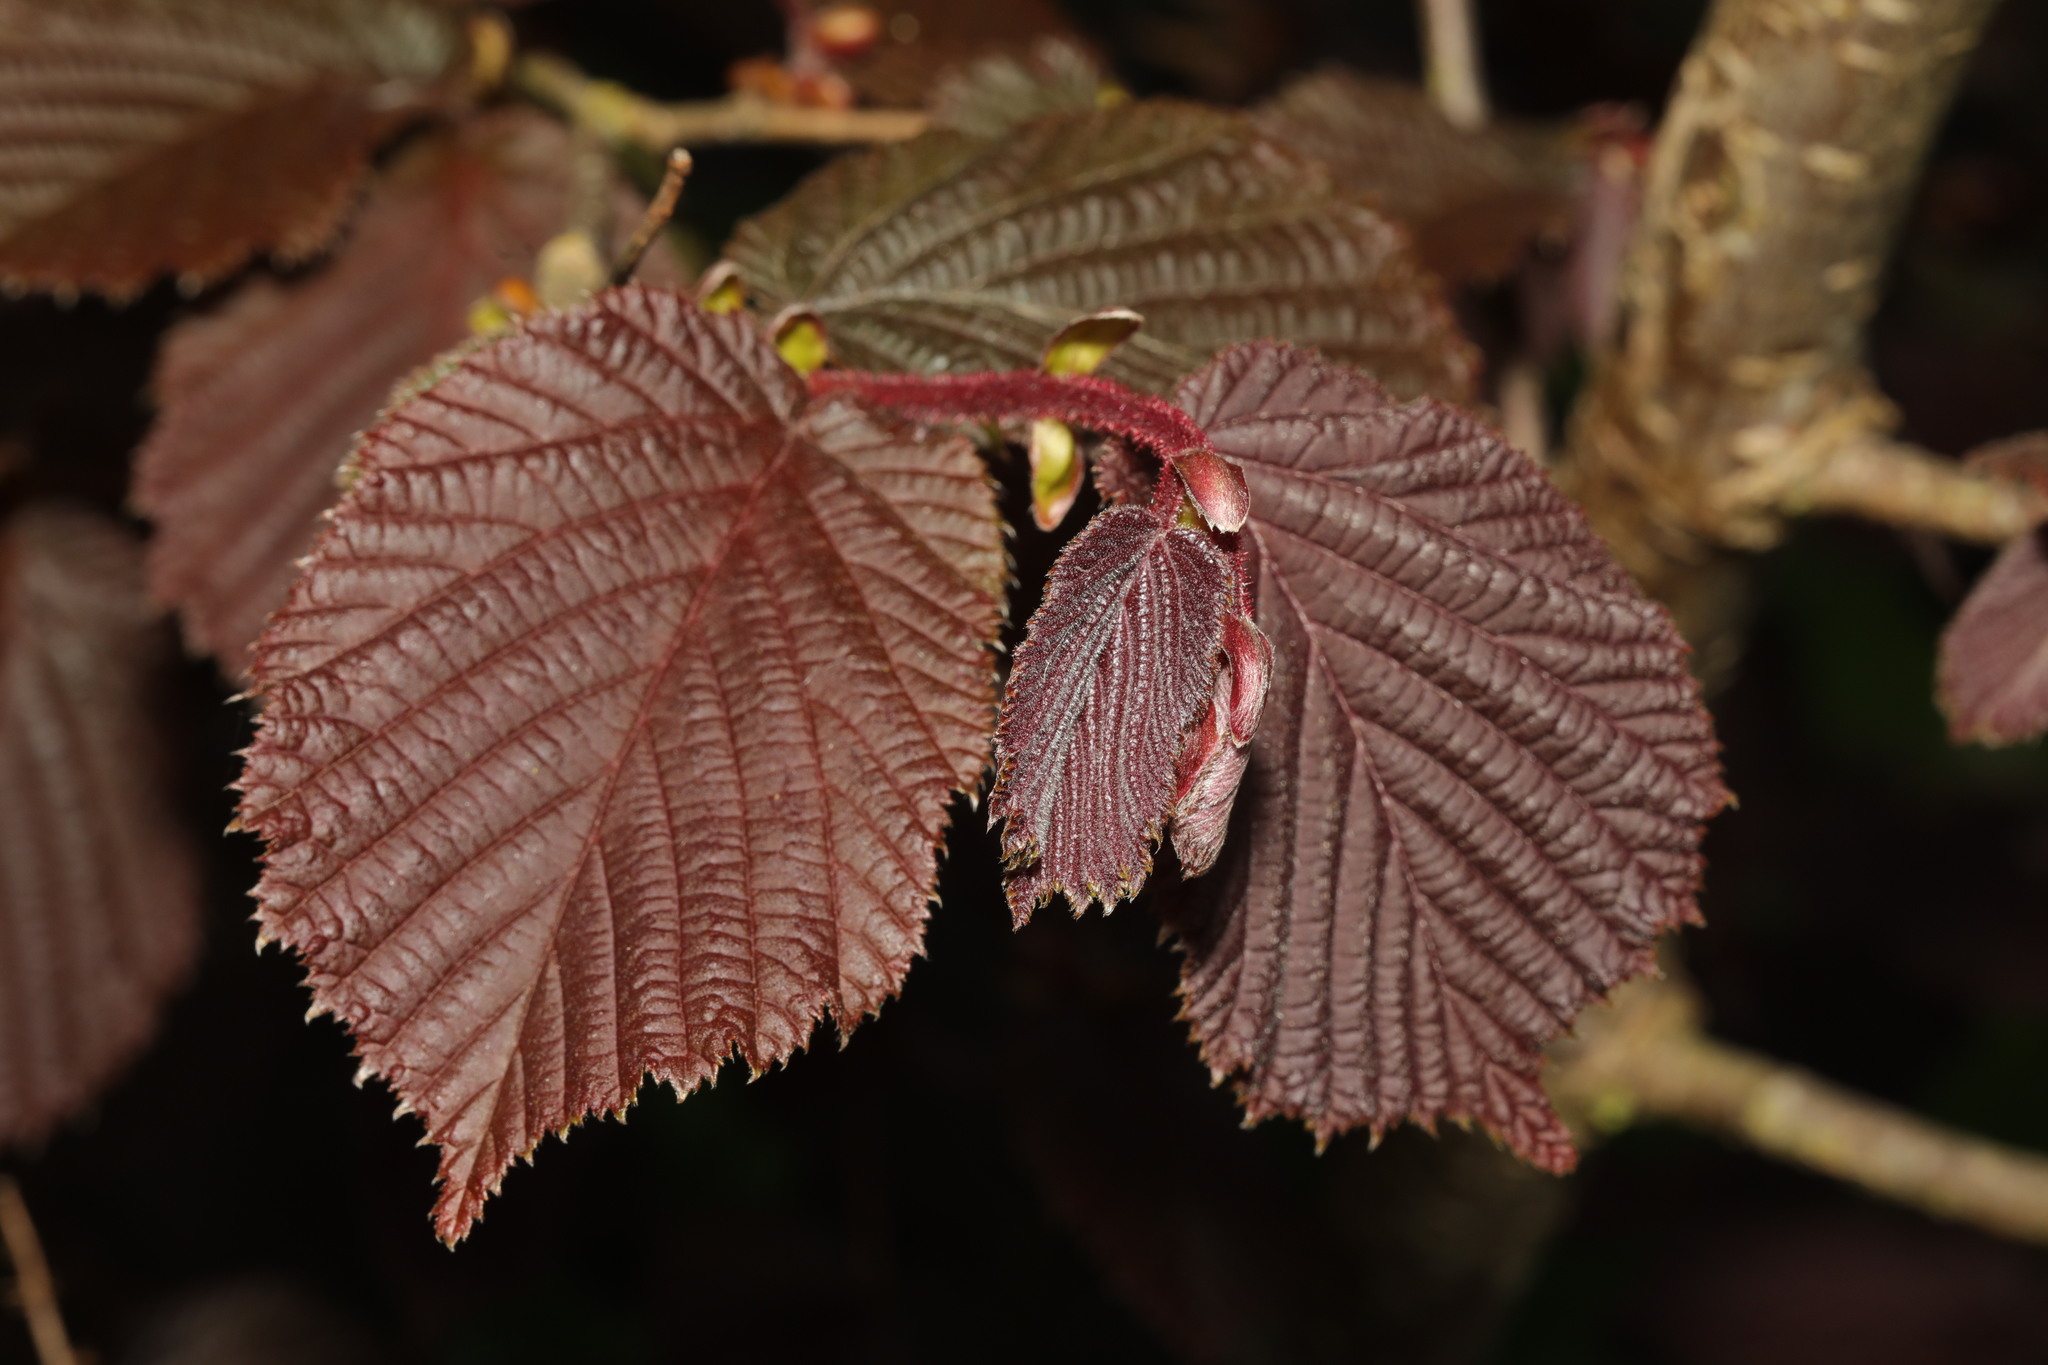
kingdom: Plantae
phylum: Tracheophyta
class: Magnoliopsida
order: Fagales
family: Betulaceae
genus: Corylus
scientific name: Corylus avellana
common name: European hazel
